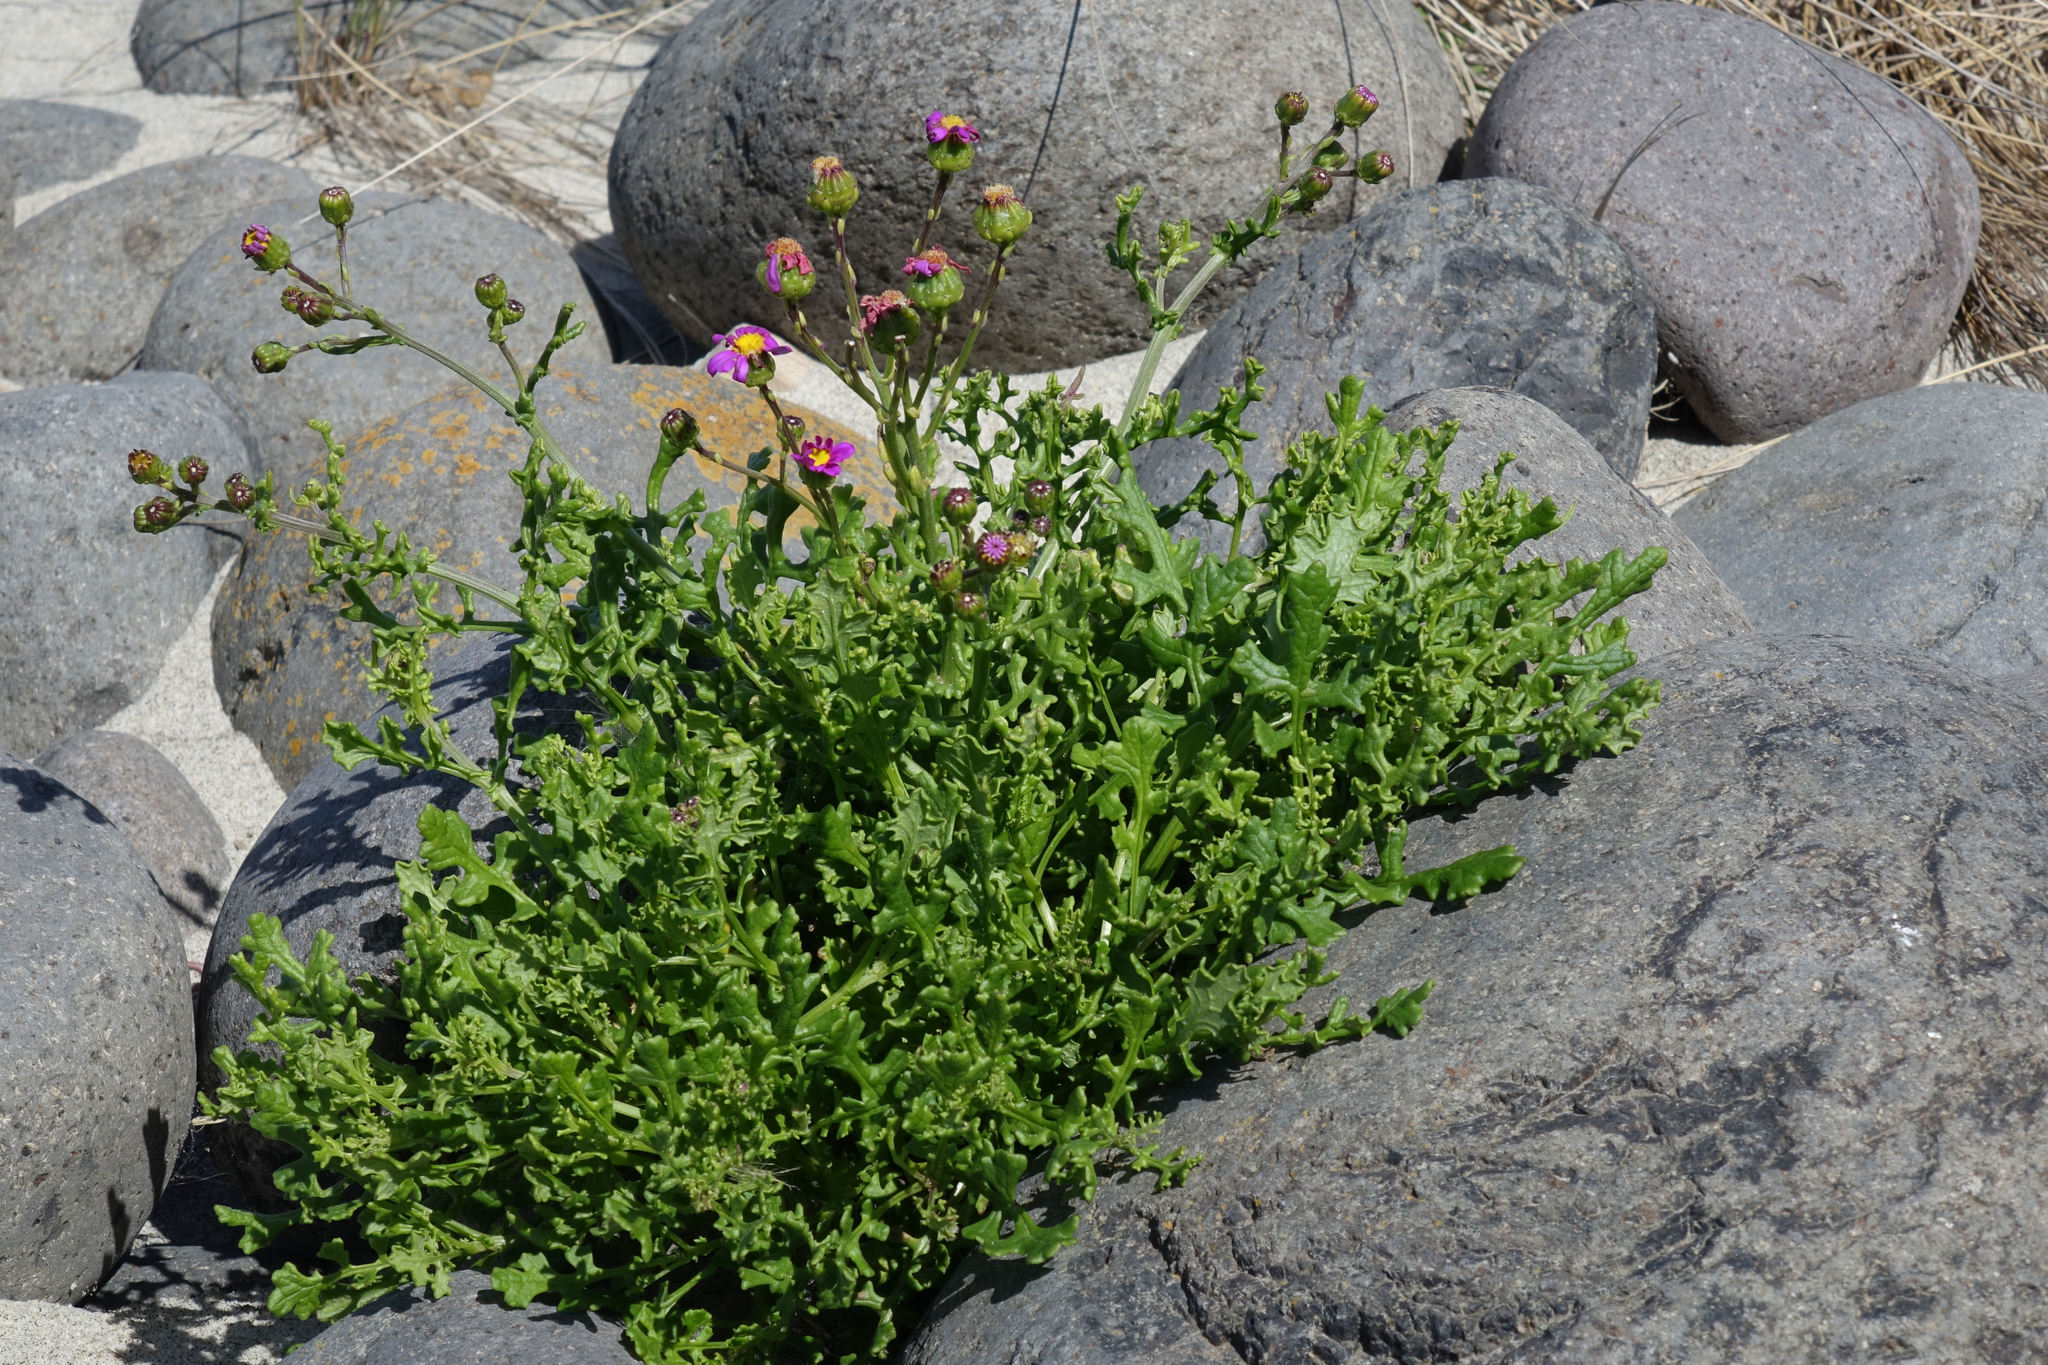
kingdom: Plantae
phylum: Tracheophyta
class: Magnoliopsida
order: Asterales
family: Asteraceae
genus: Senecio
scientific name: Senecio elegans
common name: Purple groundsel
